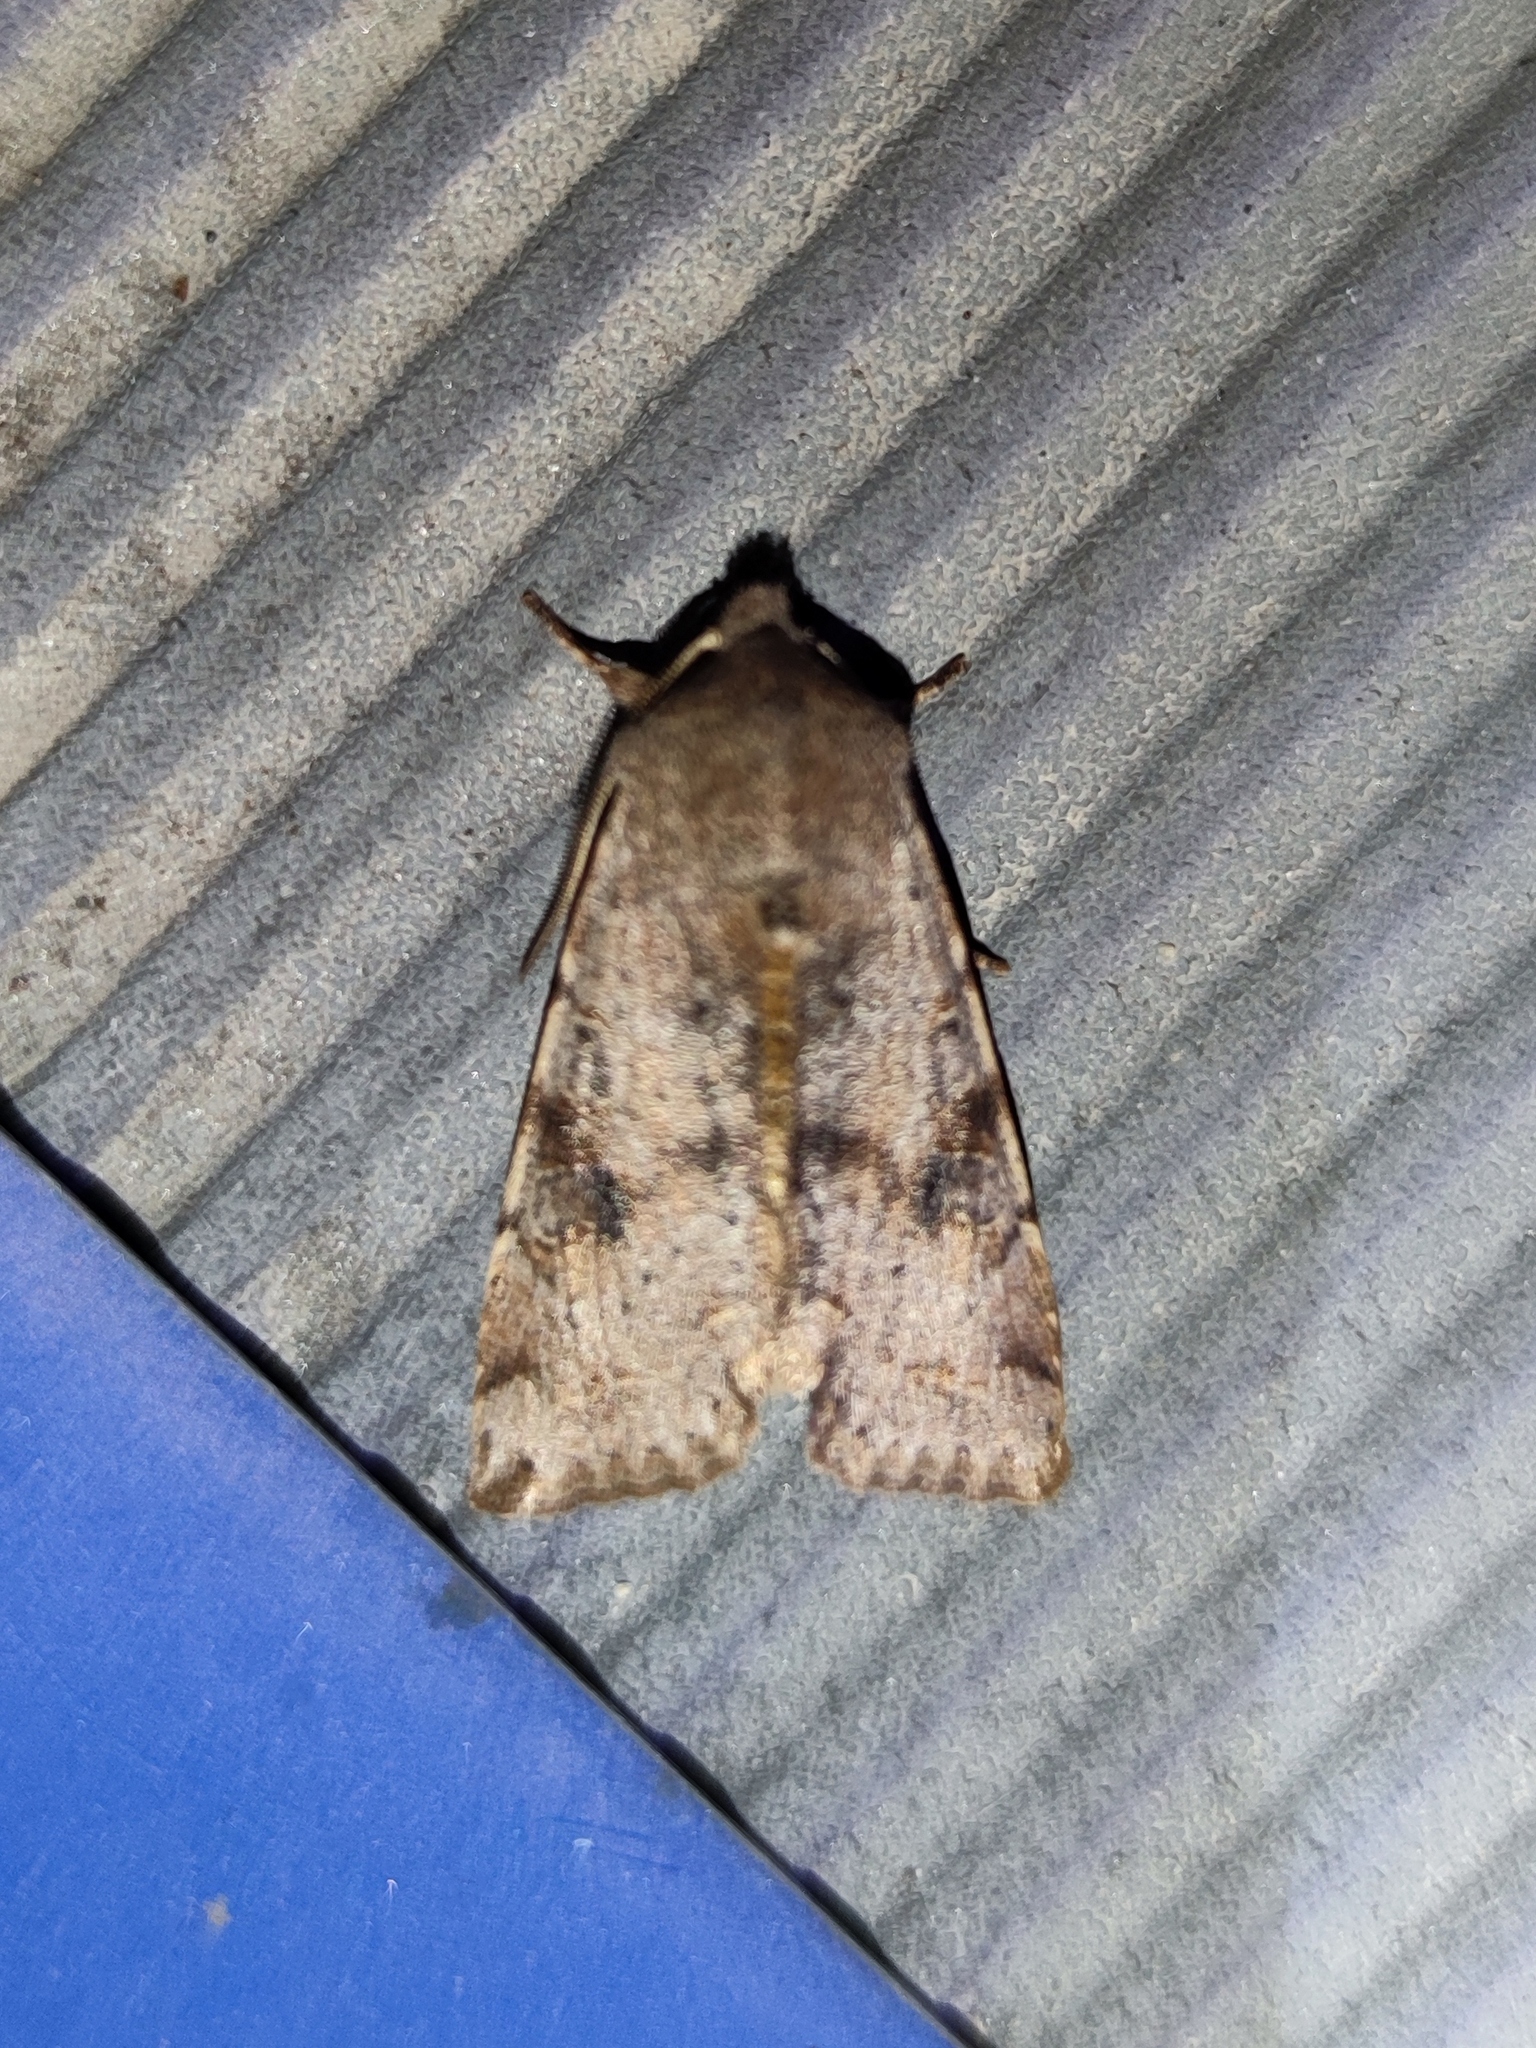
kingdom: Animalia
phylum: Arthropoda
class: Insecta
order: Lepidoptera
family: Noctuidae
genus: Orthosia
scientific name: Orthosia incerta
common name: Clouded drab
